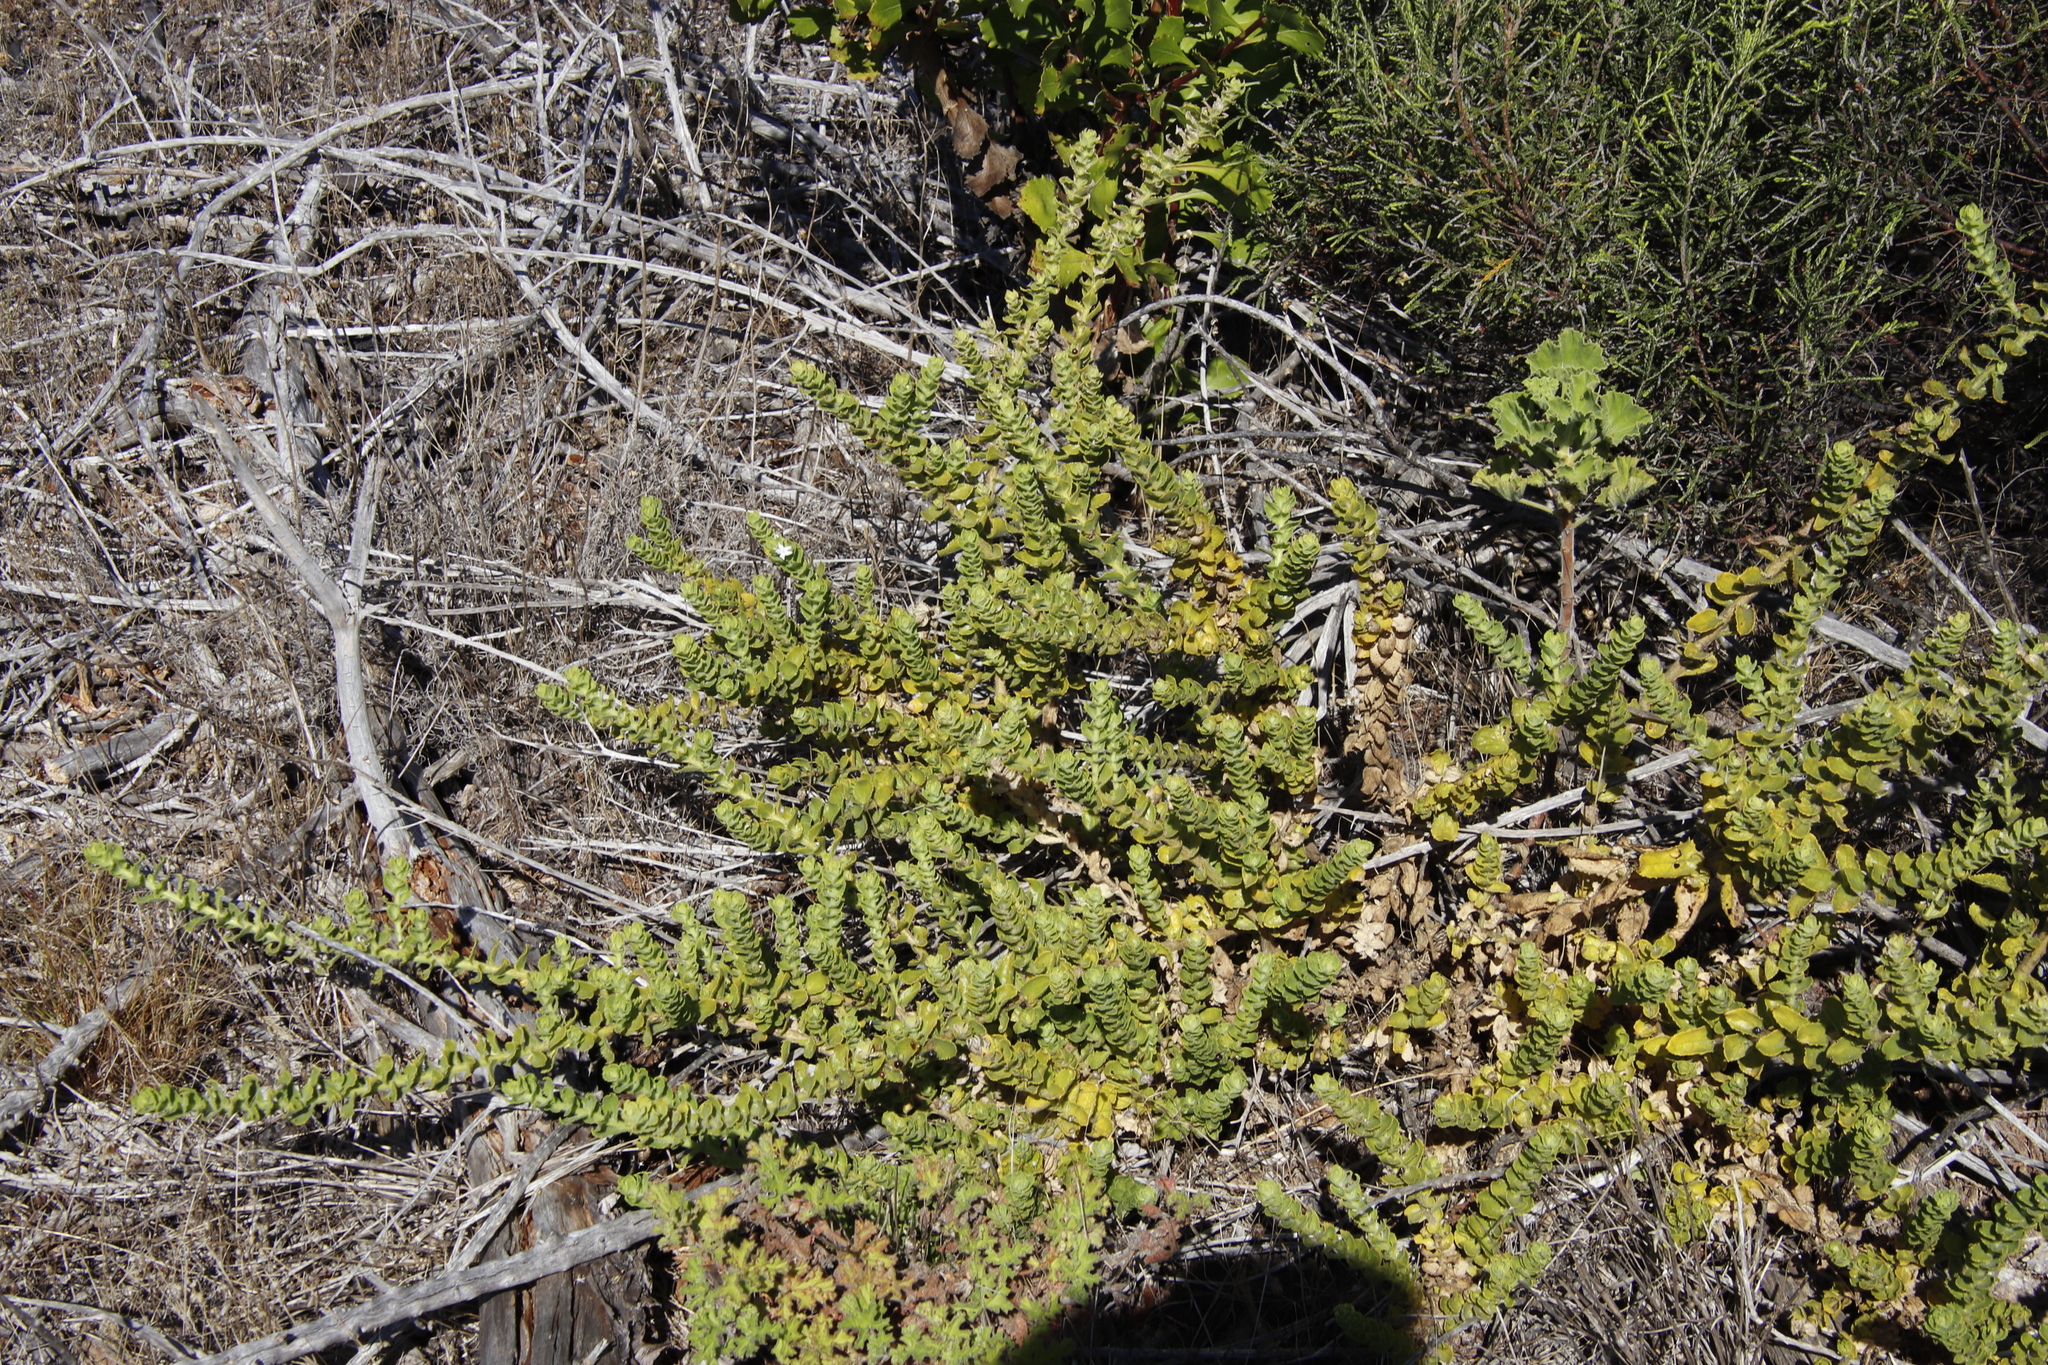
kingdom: Plantae
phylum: Tracheophyta
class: Magnoliopsida
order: Lamiales
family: Scrophulariaceae
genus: Oftia
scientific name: Oftia africana
